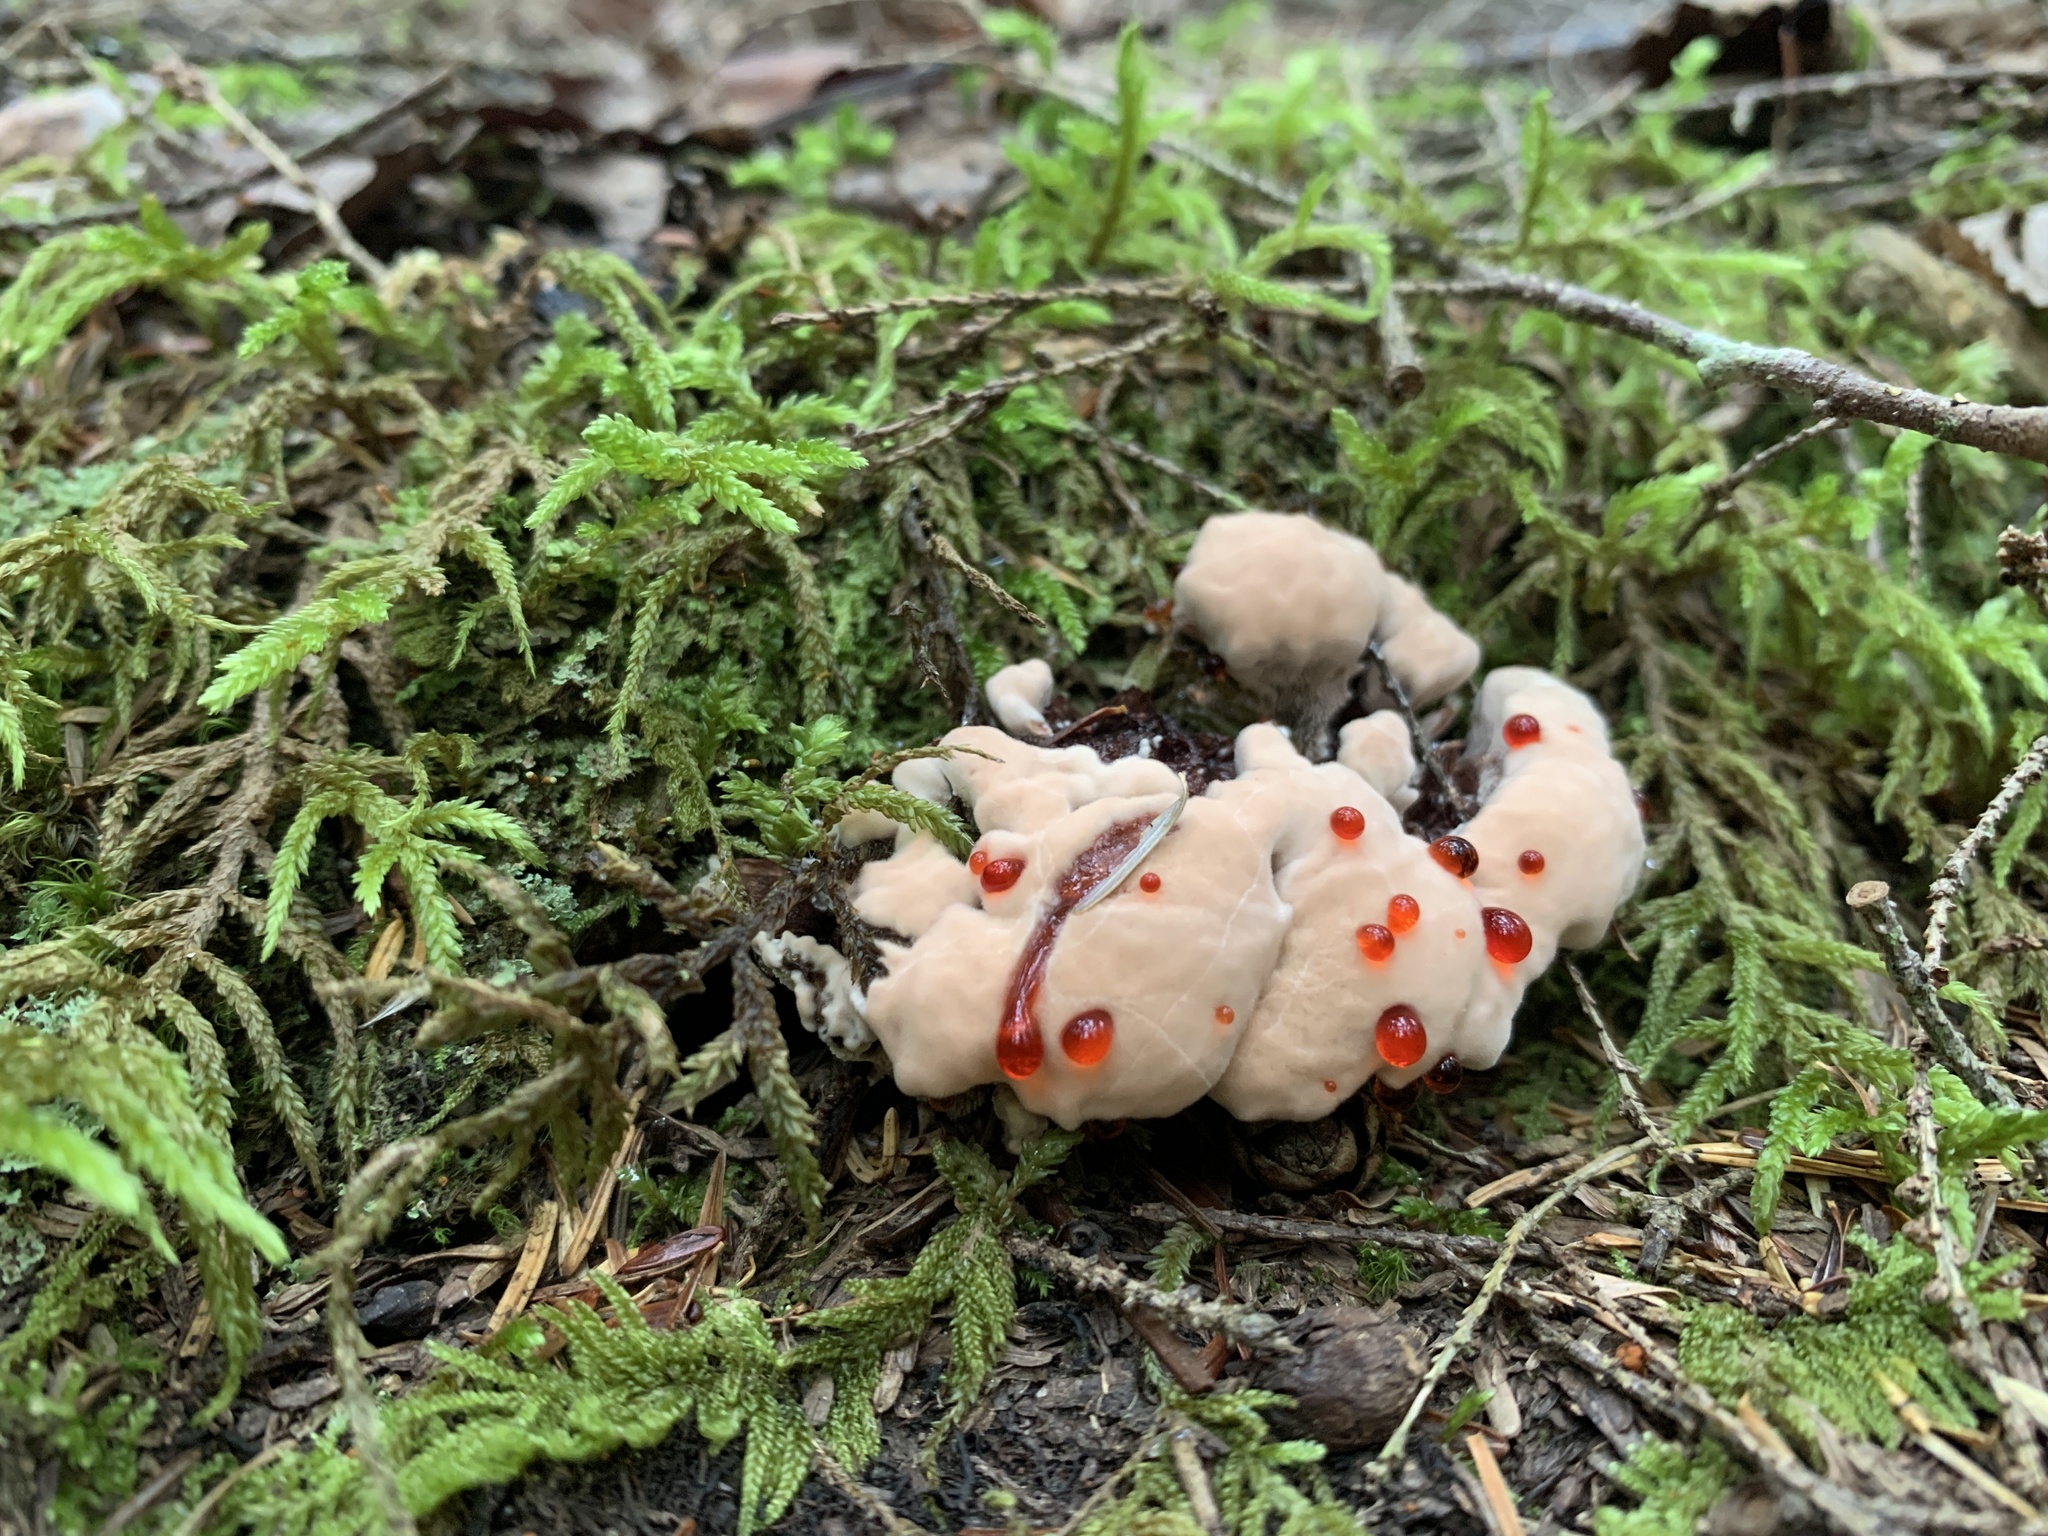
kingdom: Fungi
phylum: Basidiomycota
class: Agaricomycetes
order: Thelephorales
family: Bankeraceae
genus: Hydnellum
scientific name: Hydnellum peckii
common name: Devil's tooth
